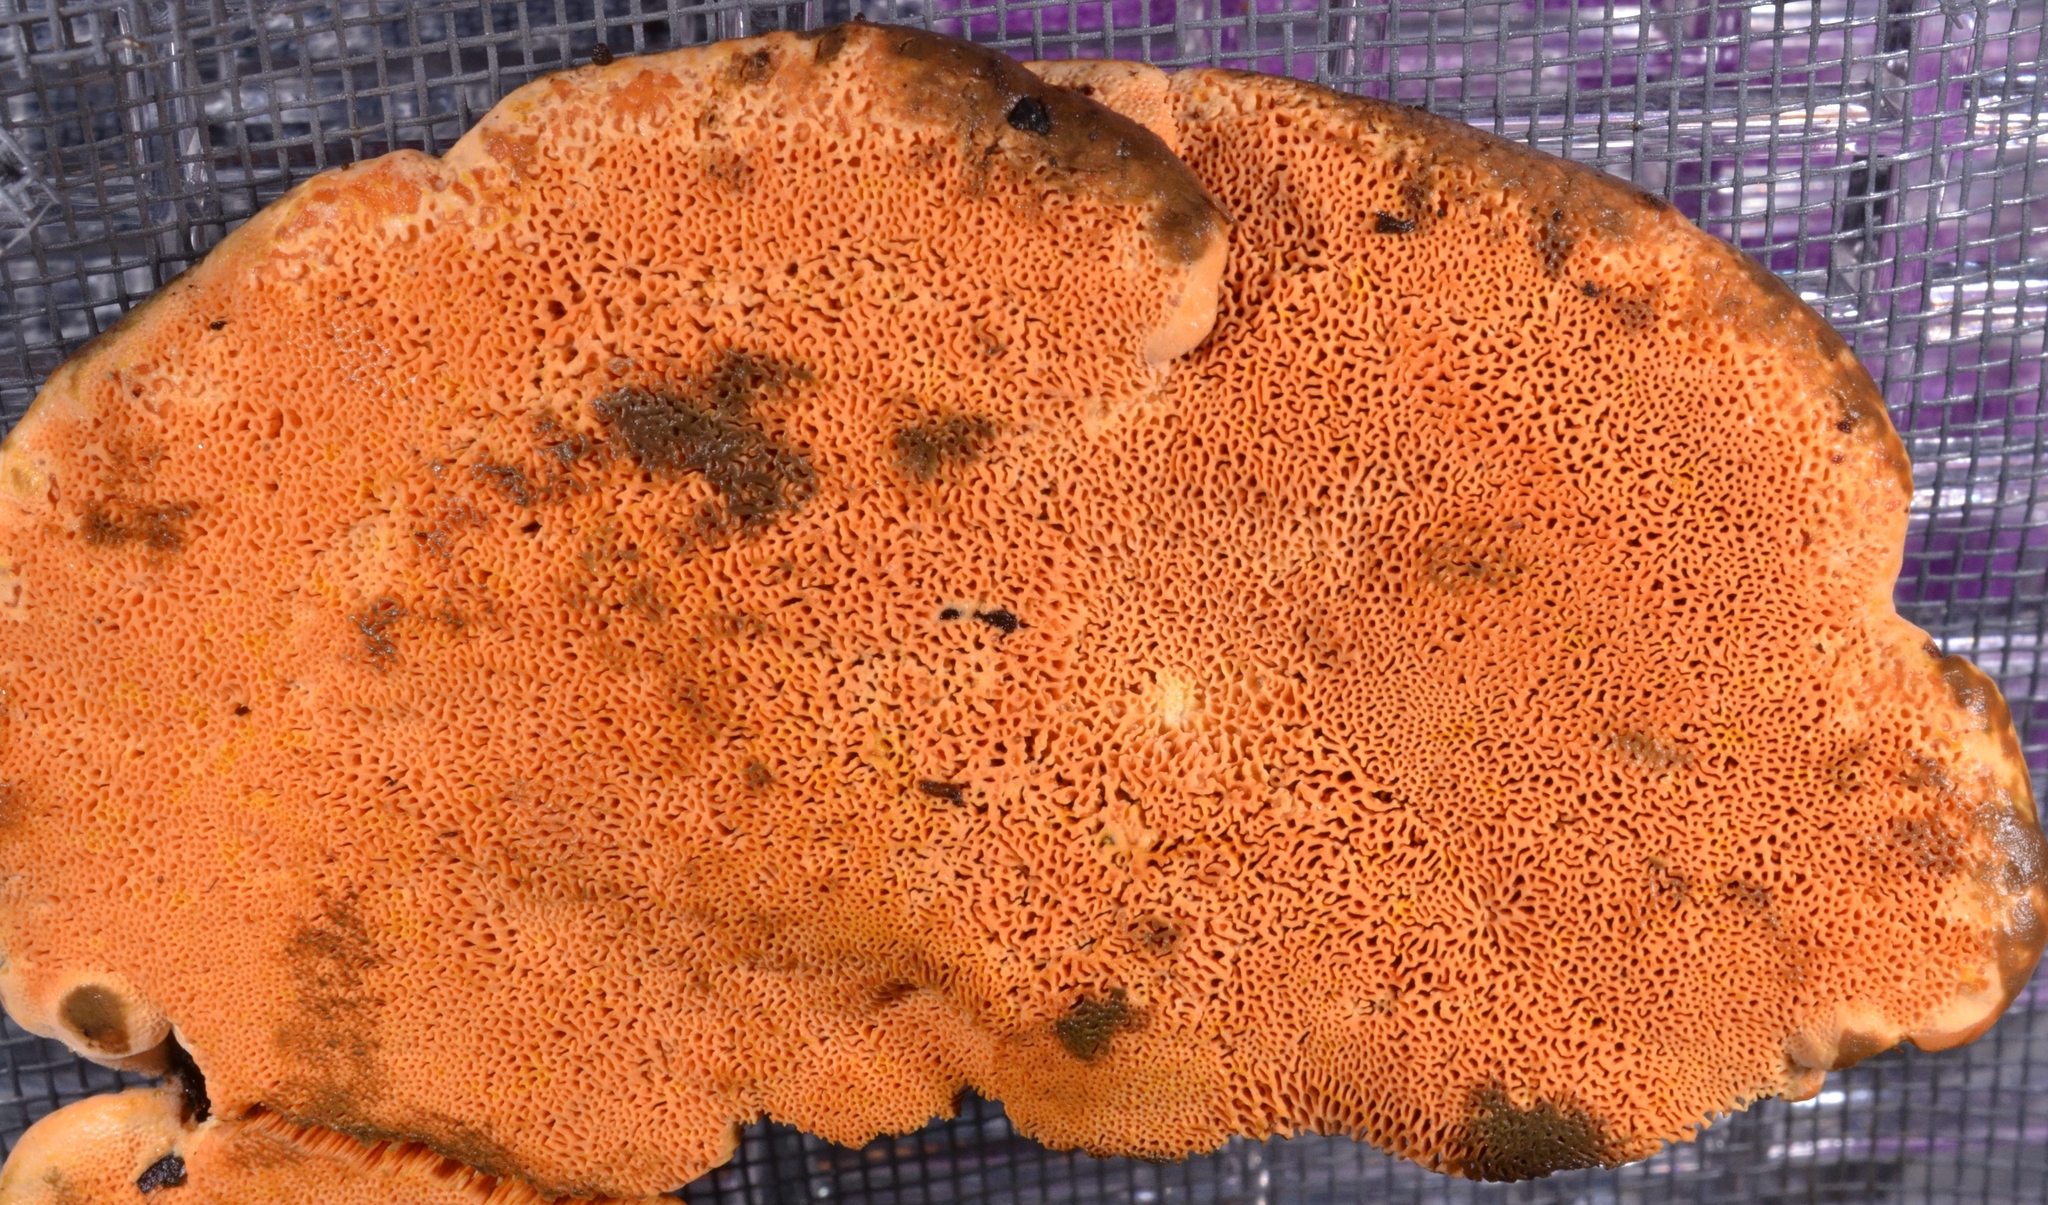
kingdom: Fungi
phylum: Basidiomycota
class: Agaricomycetes
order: Boletales
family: Tapinellaceae
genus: Bondarcevomyces
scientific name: Bondarcevomyces taxi
